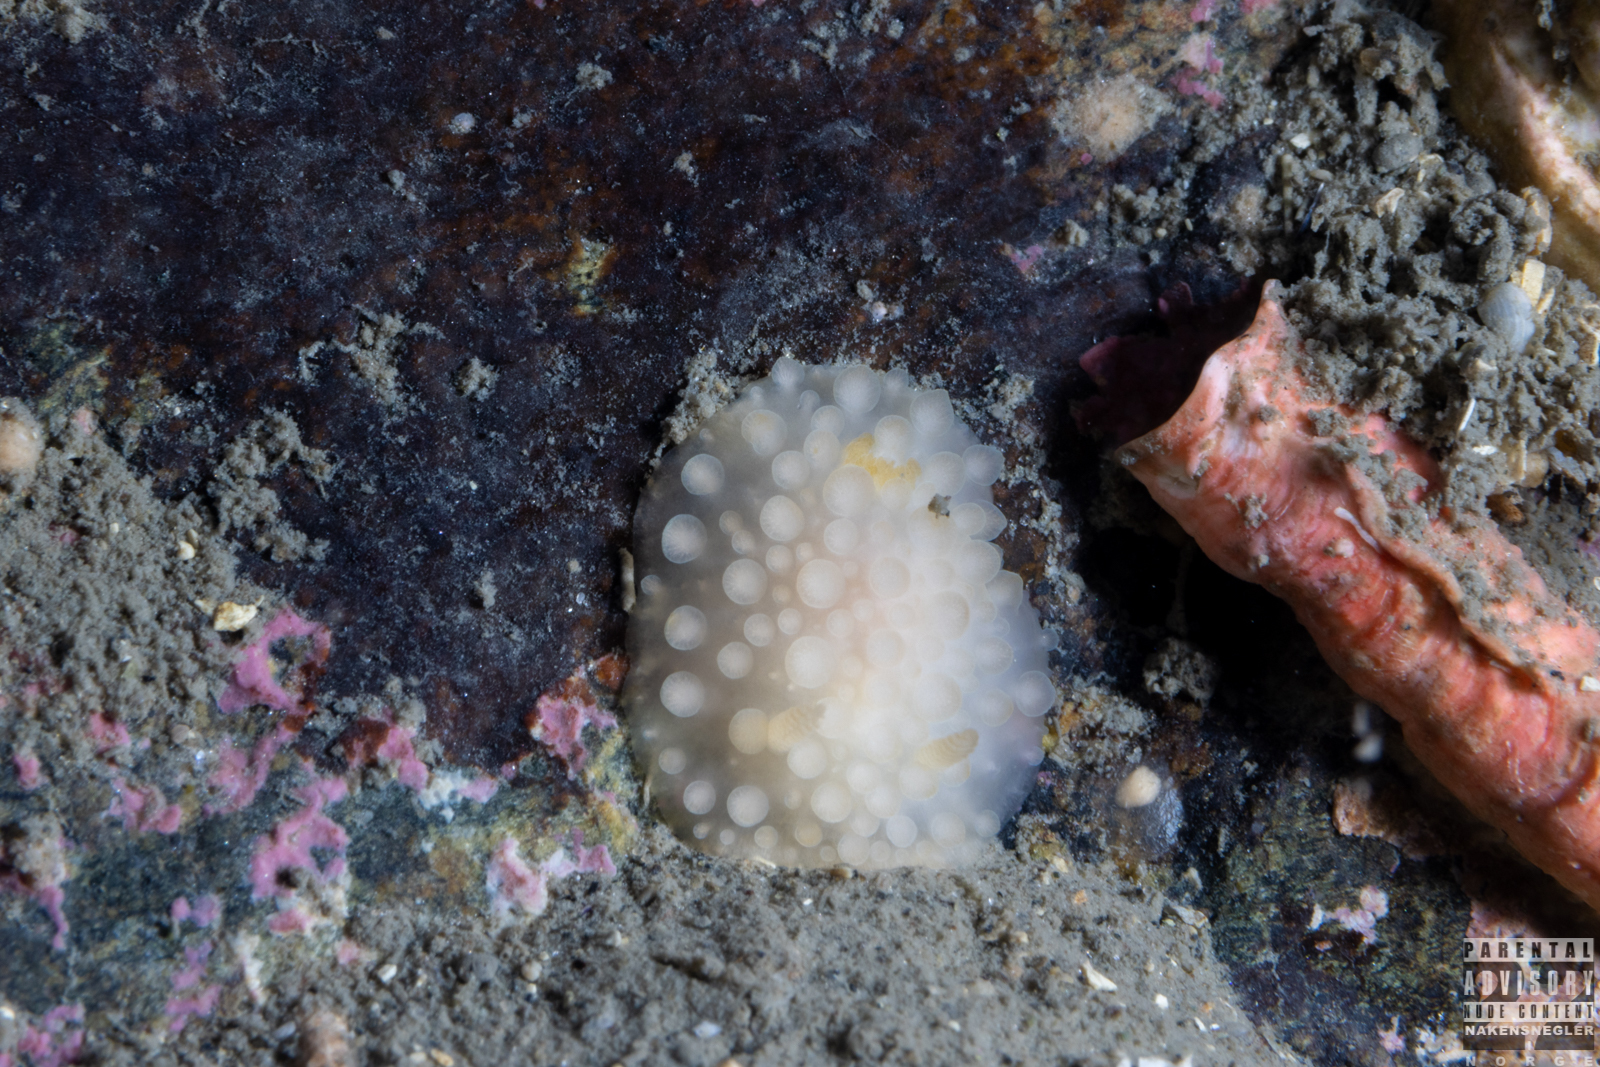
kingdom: Animalia
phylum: Mollusca
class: Gastropoda
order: Nudibranchia
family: Onchidorididae
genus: Adalaria
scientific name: Adalaria loveni
